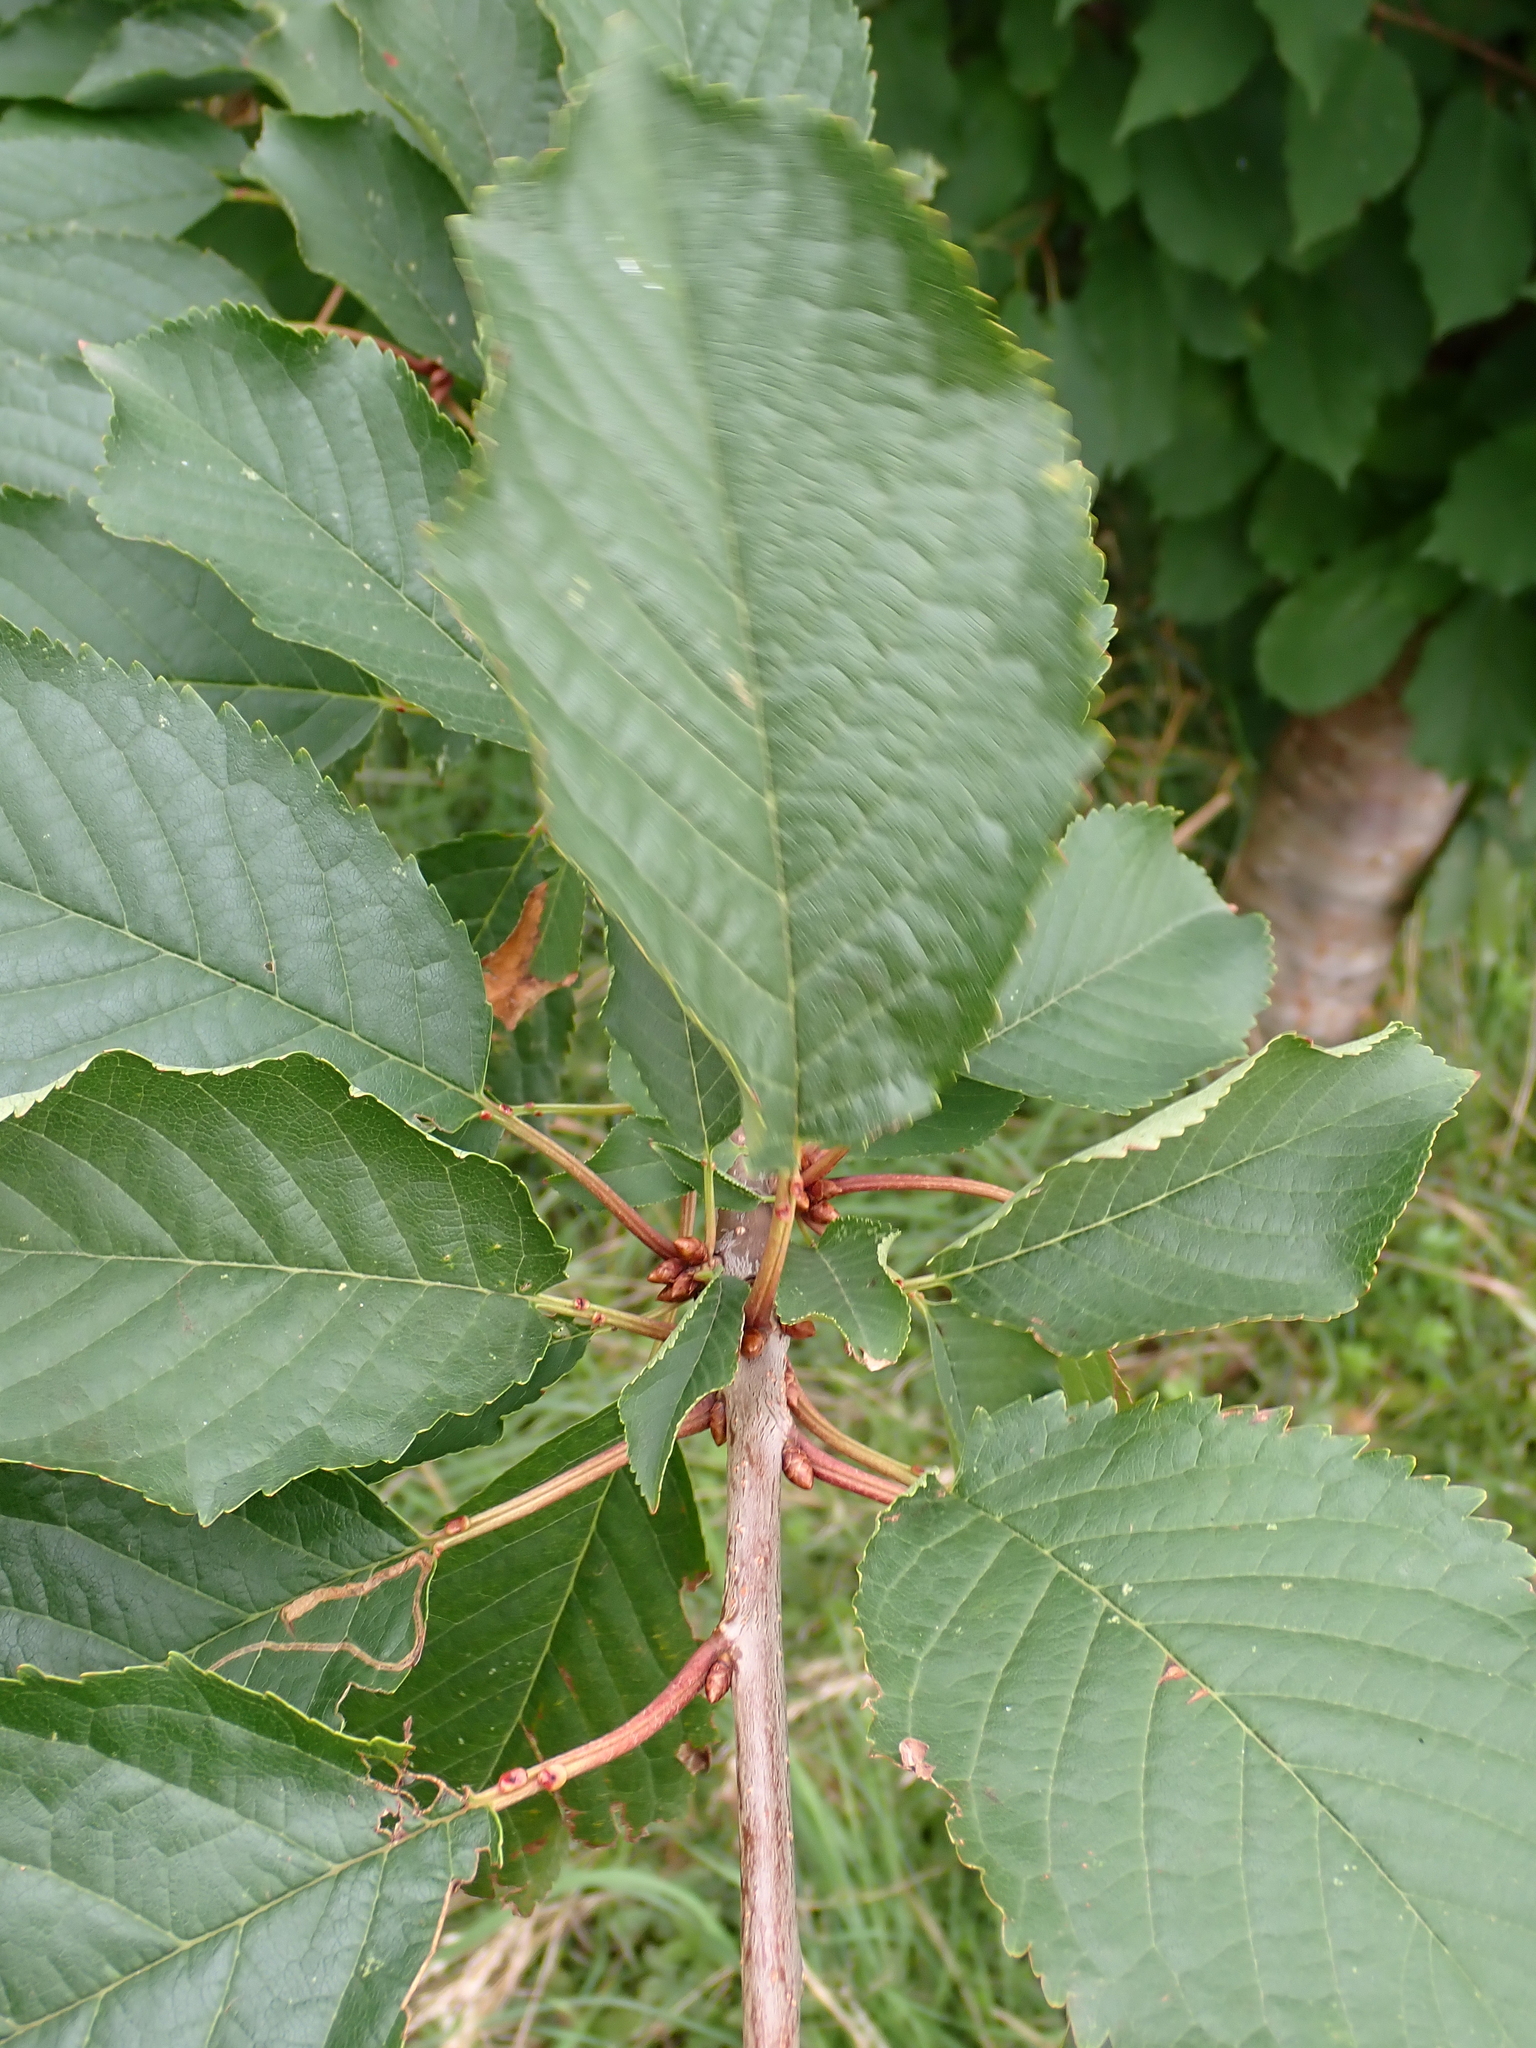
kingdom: Plantae
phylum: Tracheophyta
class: Magnoliopsida
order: Rosales
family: Rosaceae
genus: Prunus
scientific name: Prunus avium
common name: Sweet cherry
